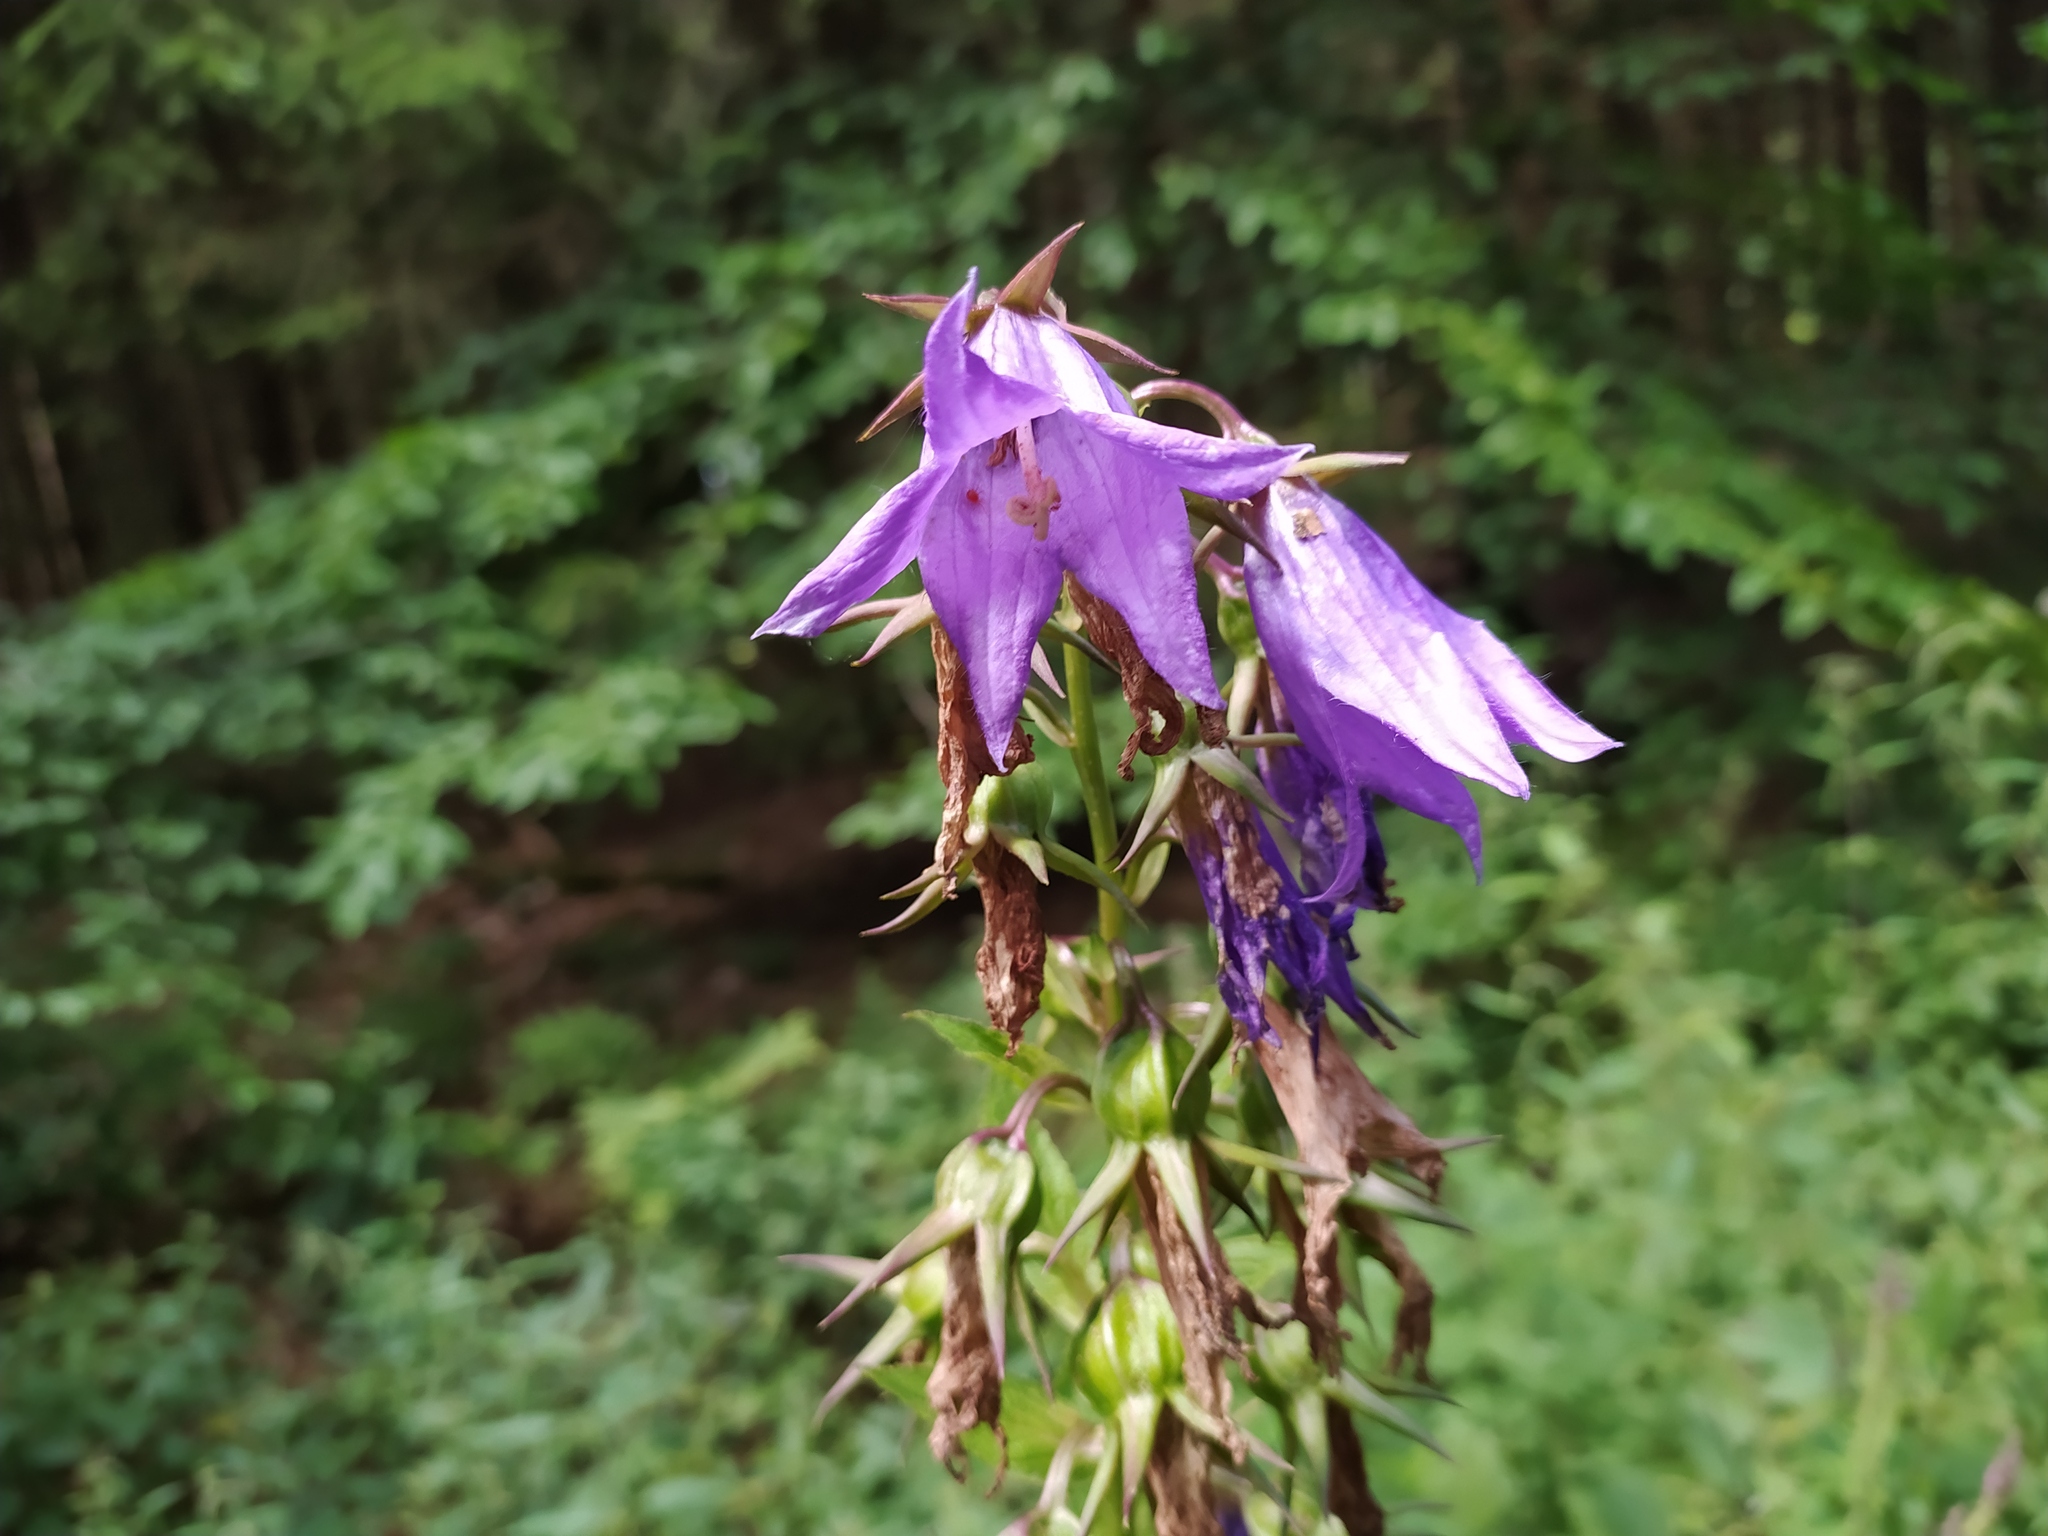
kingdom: Plantae
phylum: Tracheophyta
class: Magnoliopsida
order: Asterales
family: Campanulaceae
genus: Campanula
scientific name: Campanula latifolia
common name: Giant bellflower
